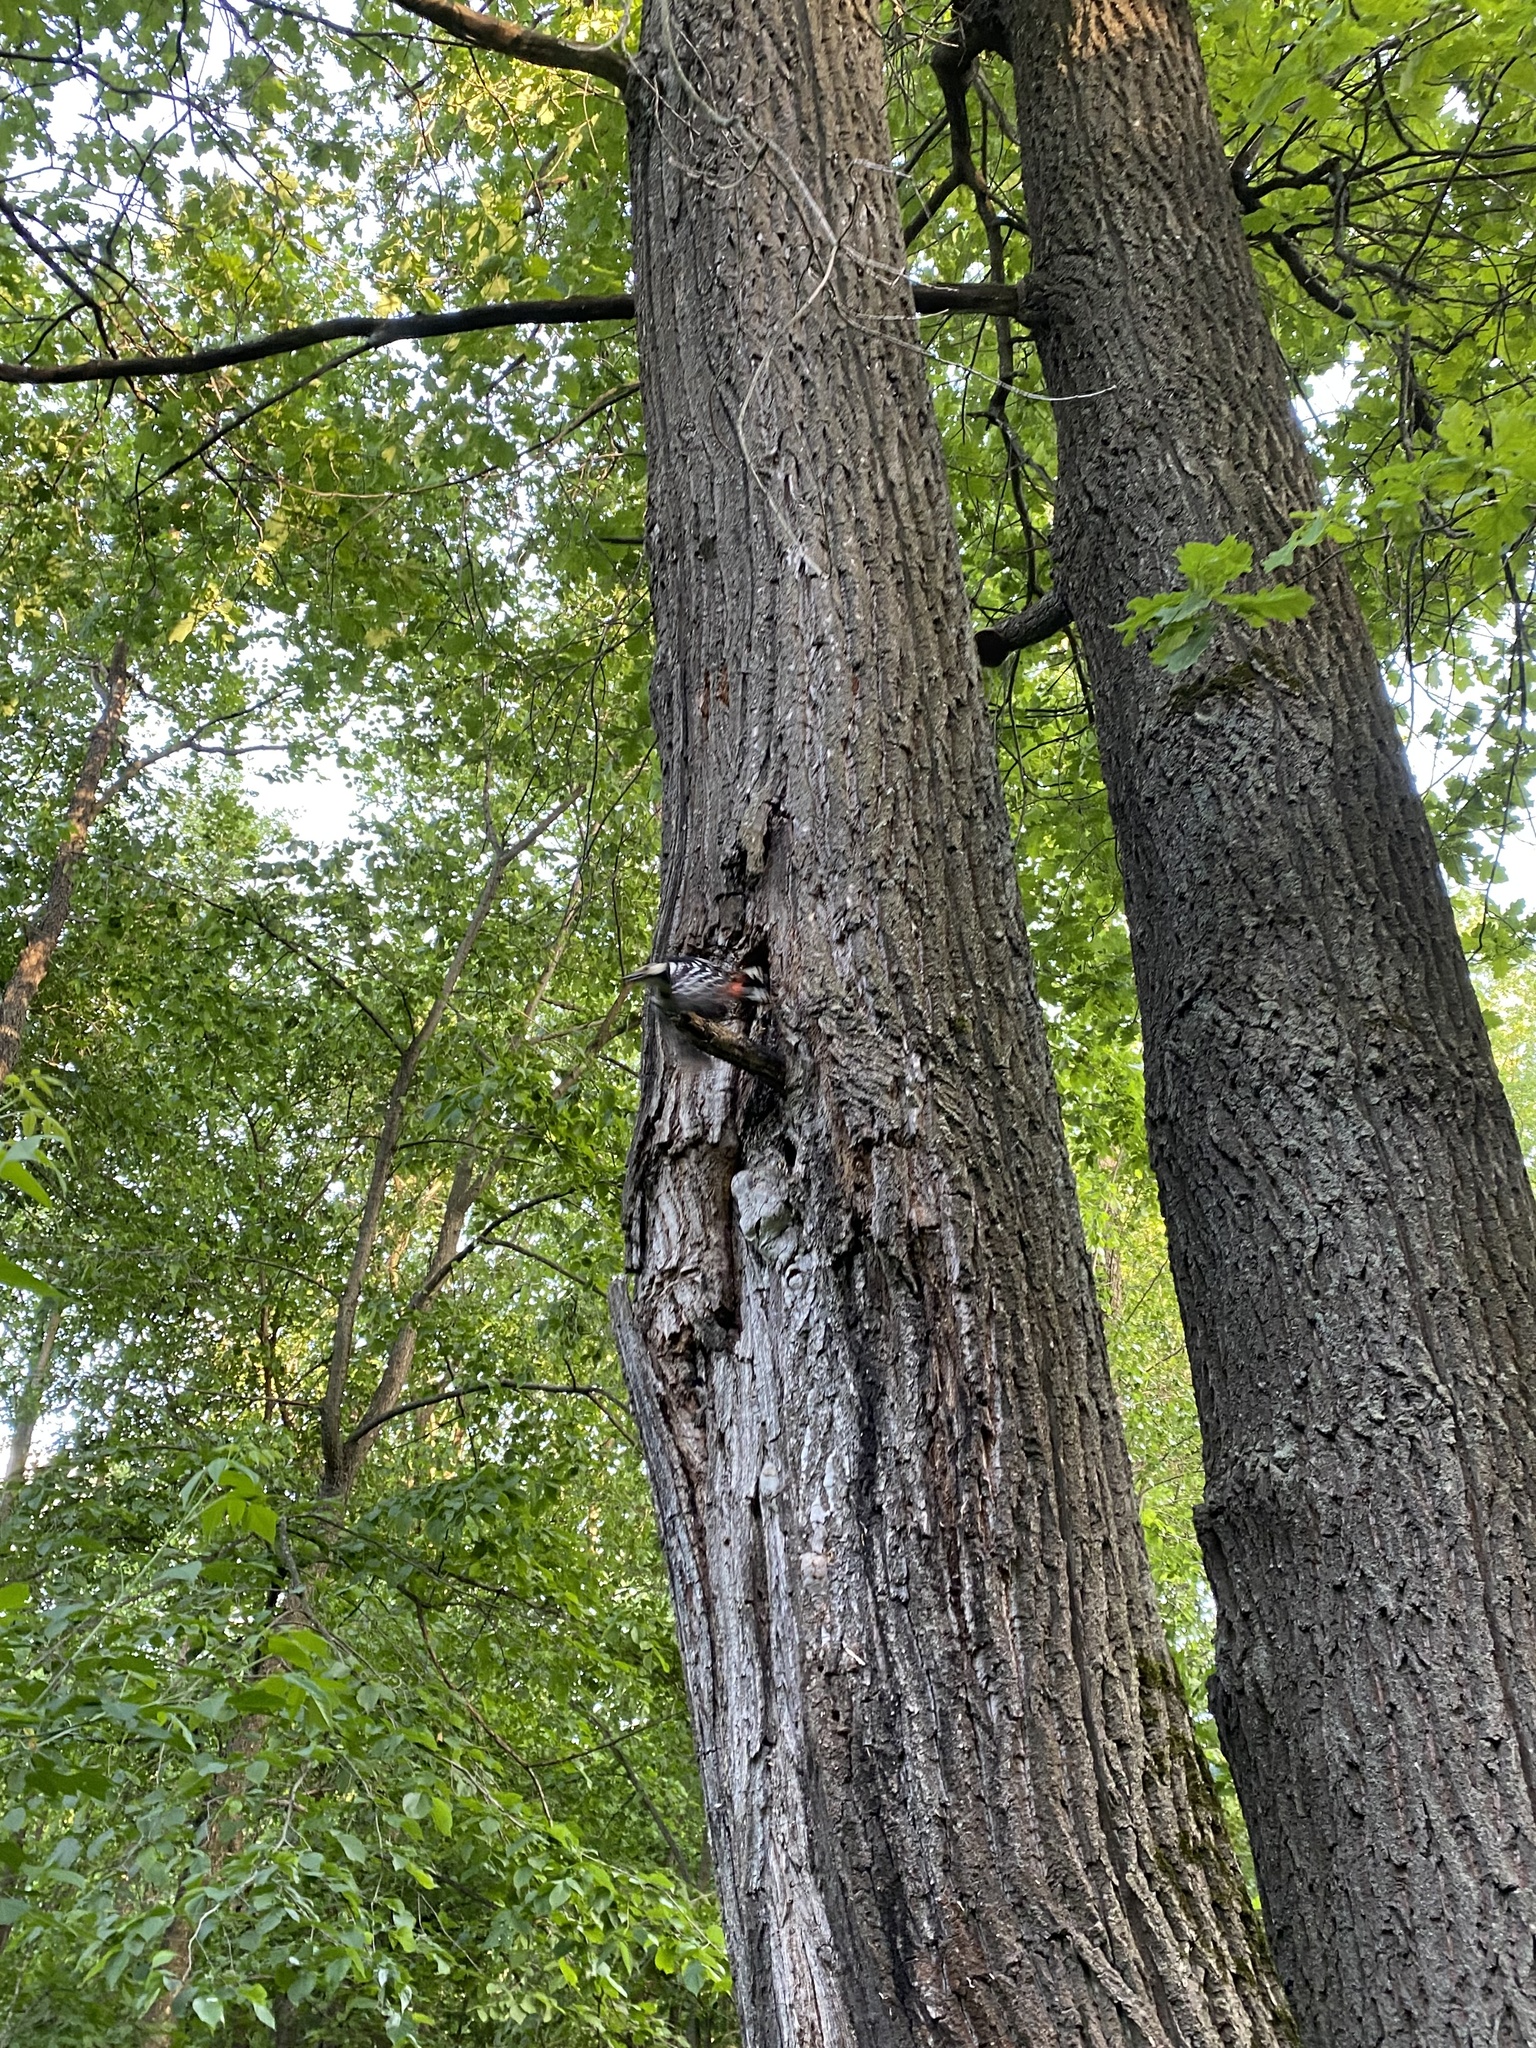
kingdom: Animalia
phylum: Chordata
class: Aves
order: Piciformes
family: Picidae
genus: Dendrocopos
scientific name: Dendrocopos major
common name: Great spotted woodpecker
